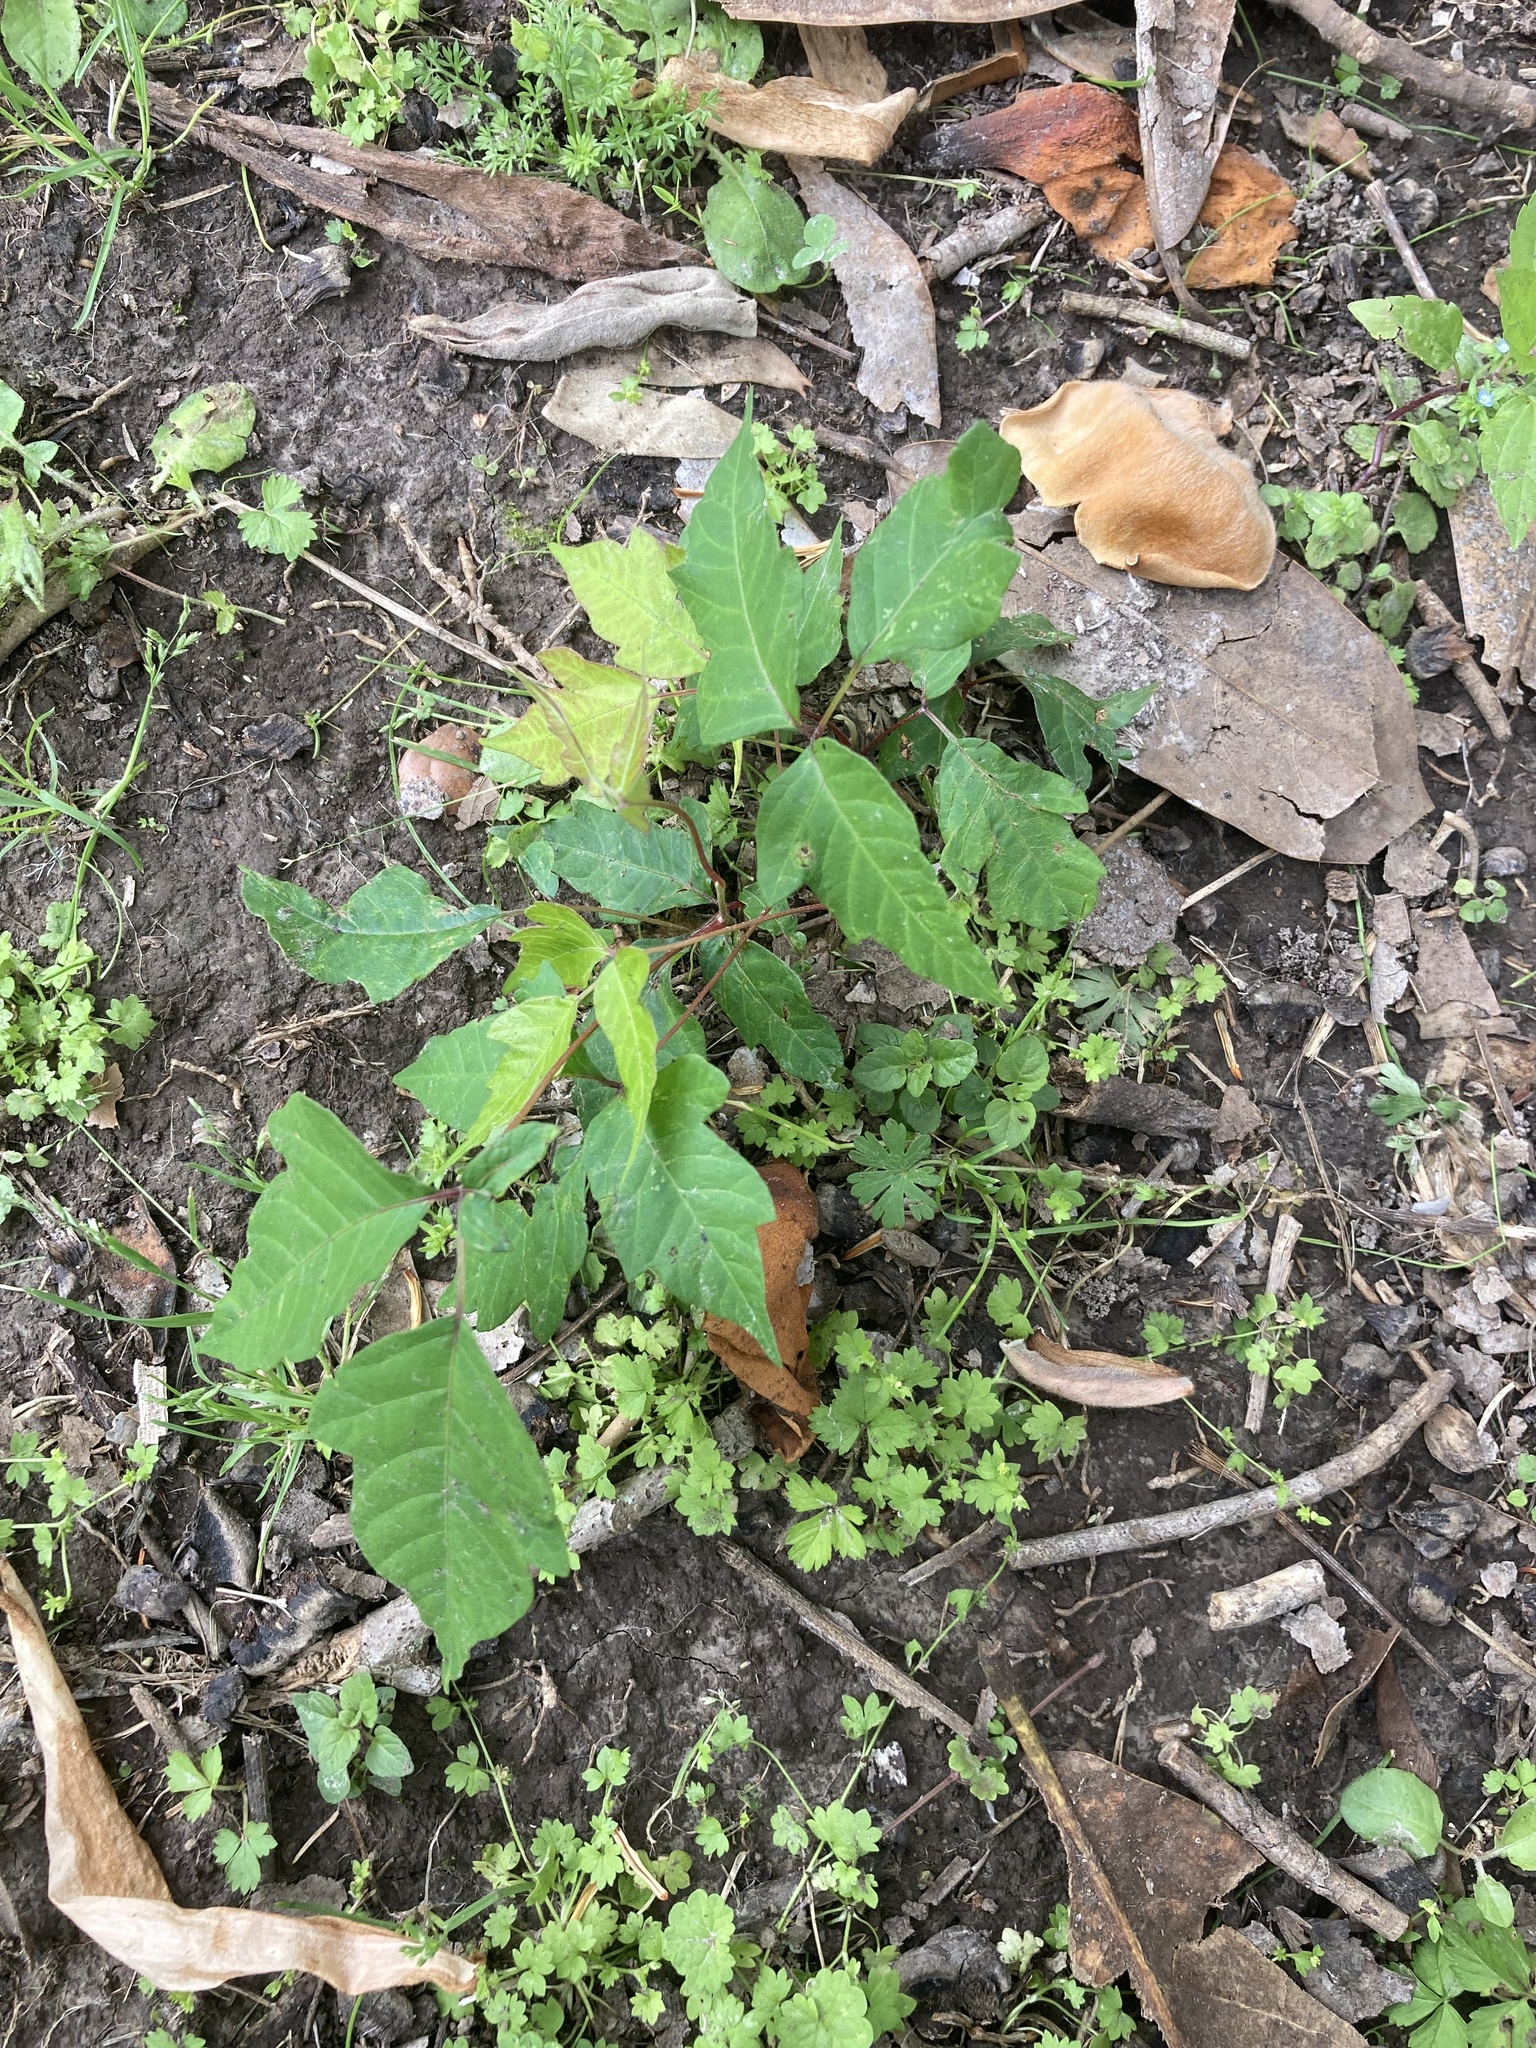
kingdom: Plantae
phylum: Tracheophyta
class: Magnoliopsida
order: Sapindales
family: Anacardiaceae
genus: Toxicodendron
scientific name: Toxicodendron radicans
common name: Poison ivy
